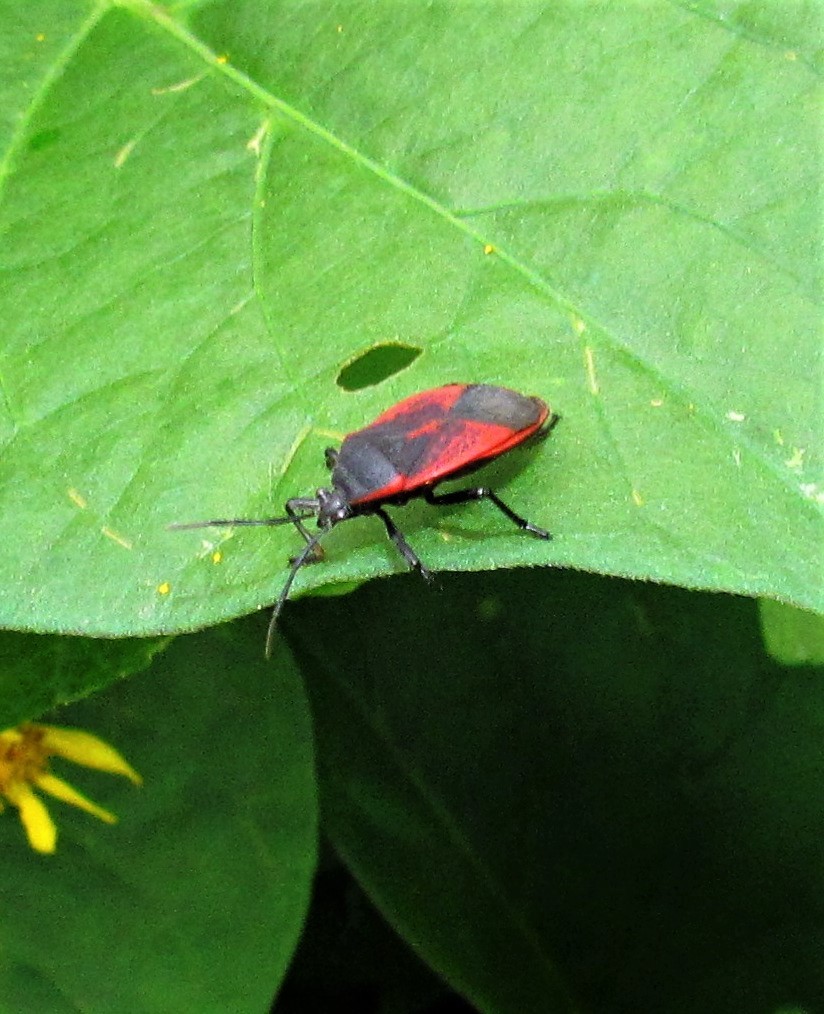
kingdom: Animalia
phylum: Arthropoda
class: Insecta
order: Hemiptera
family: Largidae
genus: Largus
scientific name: Largus rufipennis
